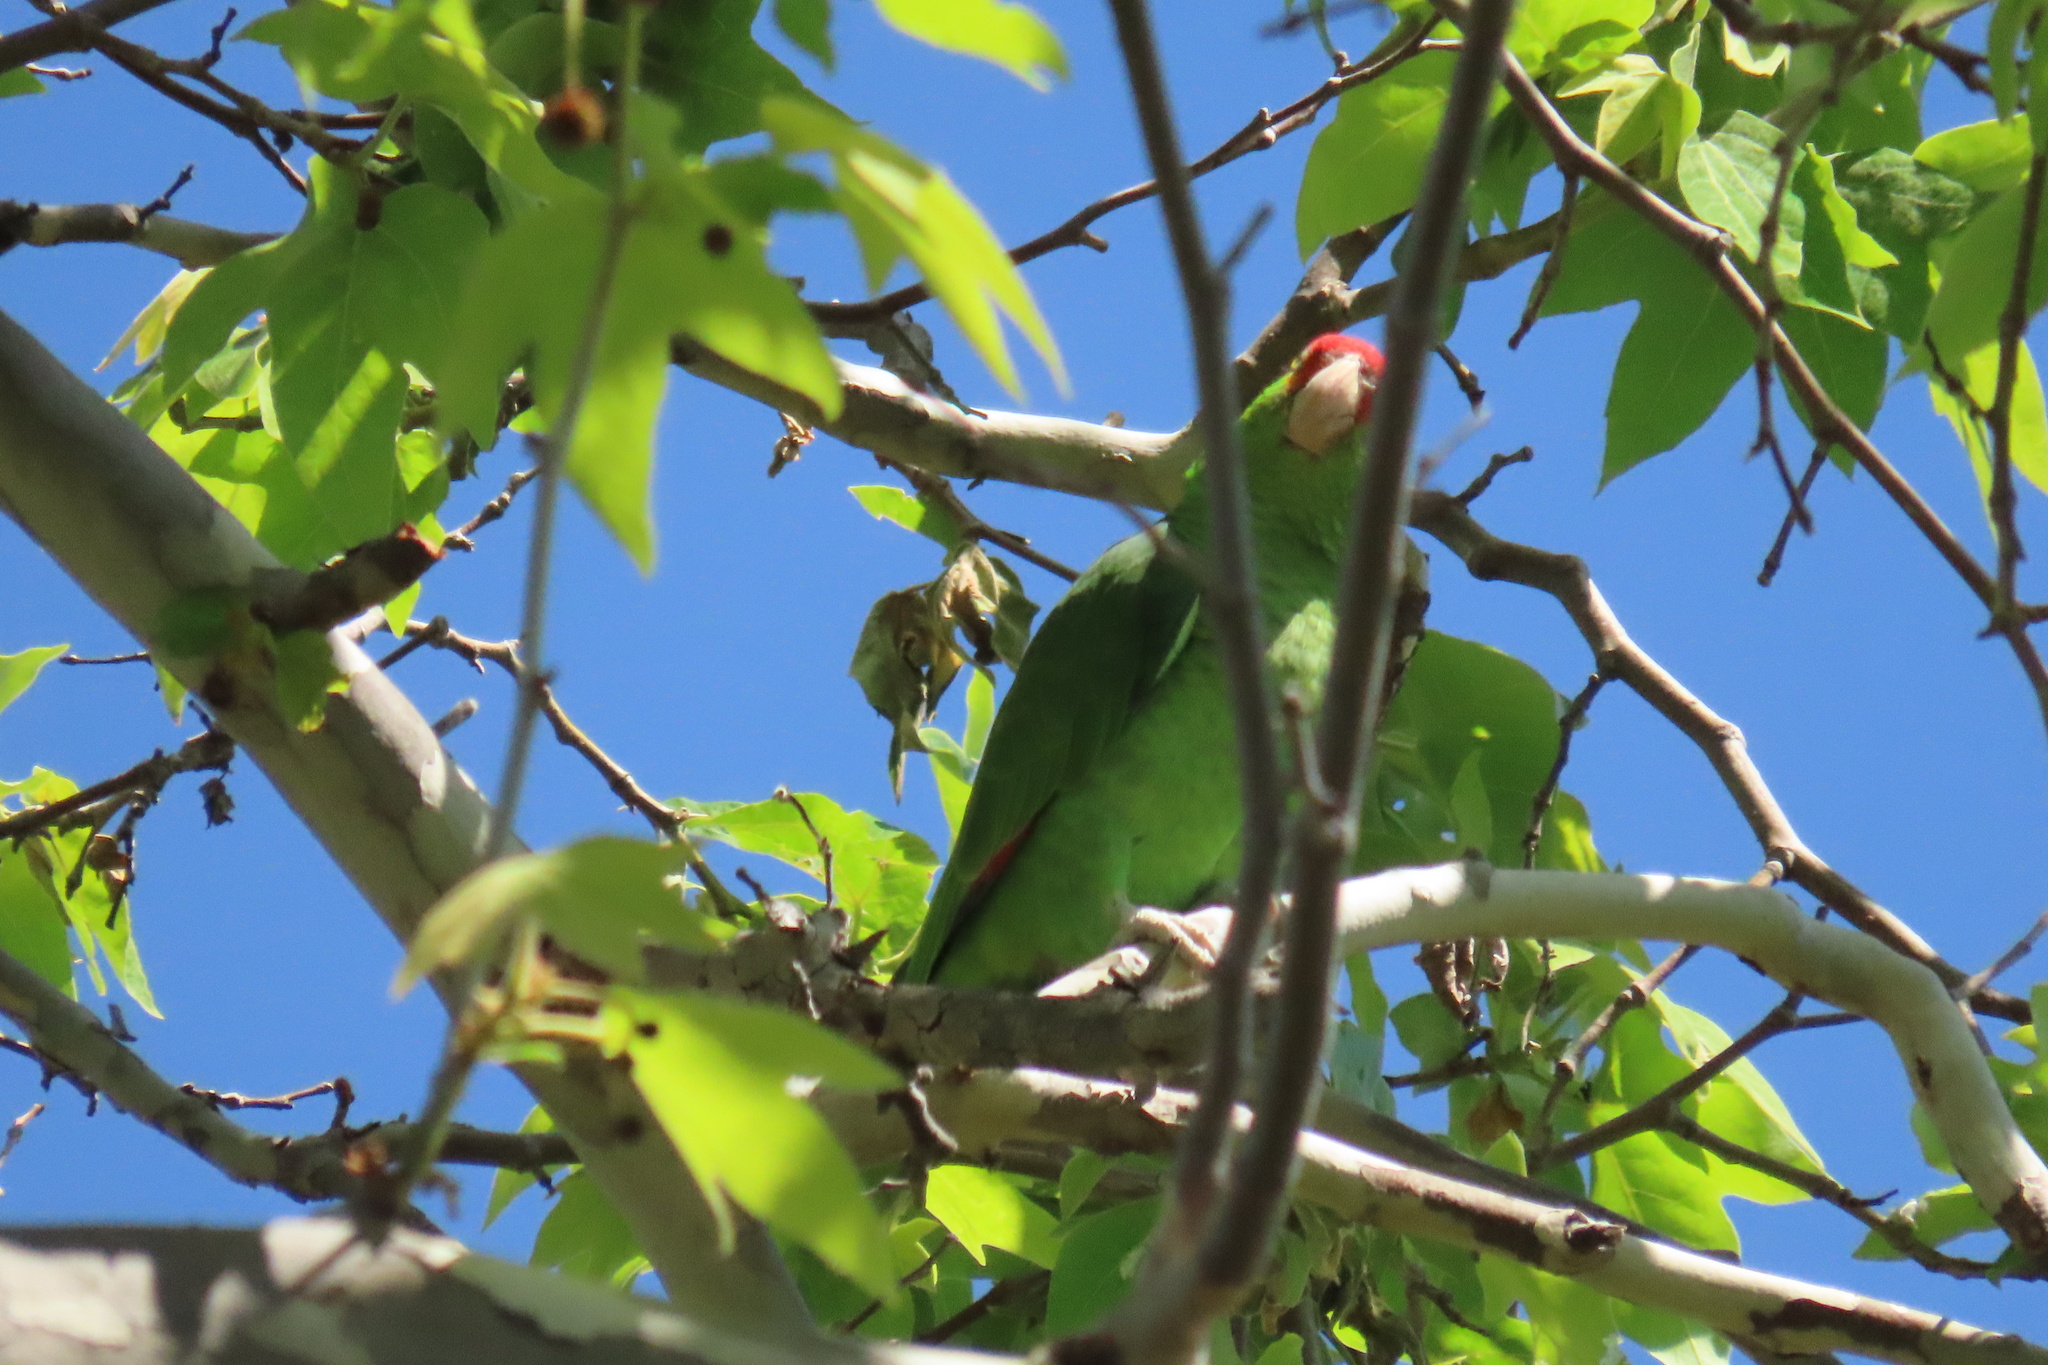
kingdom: Animalia
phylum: Chordata
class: Aves
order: Psittaciformes
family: Psittacidae
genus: Amazona
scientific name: Amazona viridigenalis
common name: Red-crowned amazon
